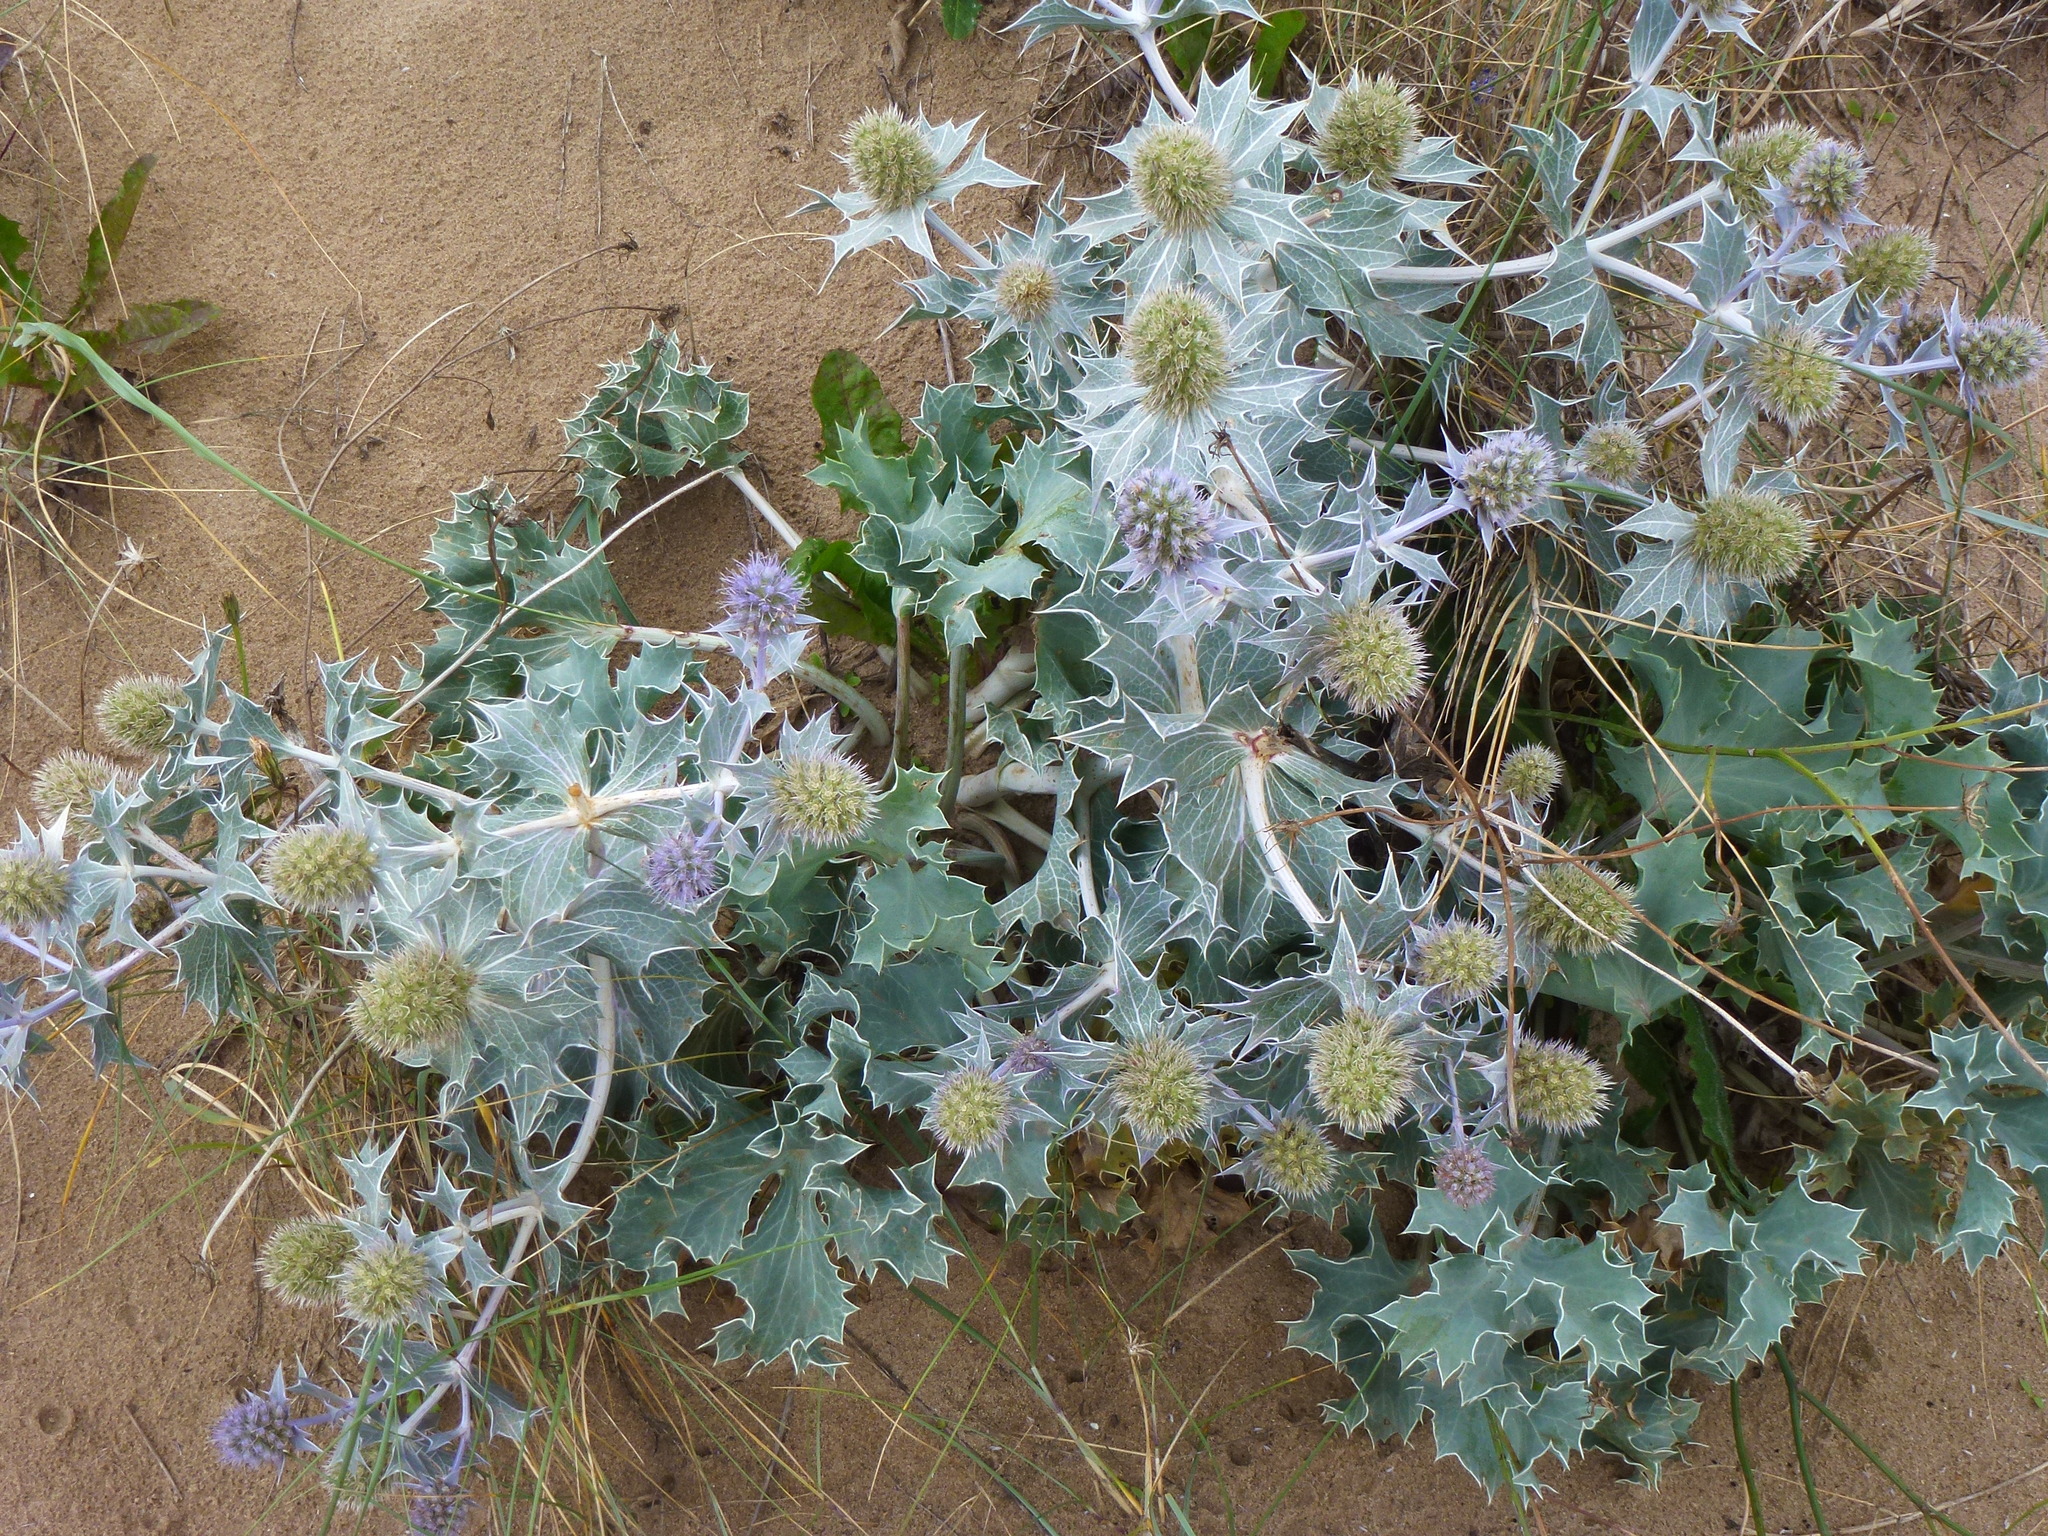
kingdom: Plantae
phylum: Tracheophyta
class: Magnoliopsida
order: Apiales
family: Apiaceae
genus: Eryngium
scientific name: Eryngium maritimum
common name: Sea-holly
